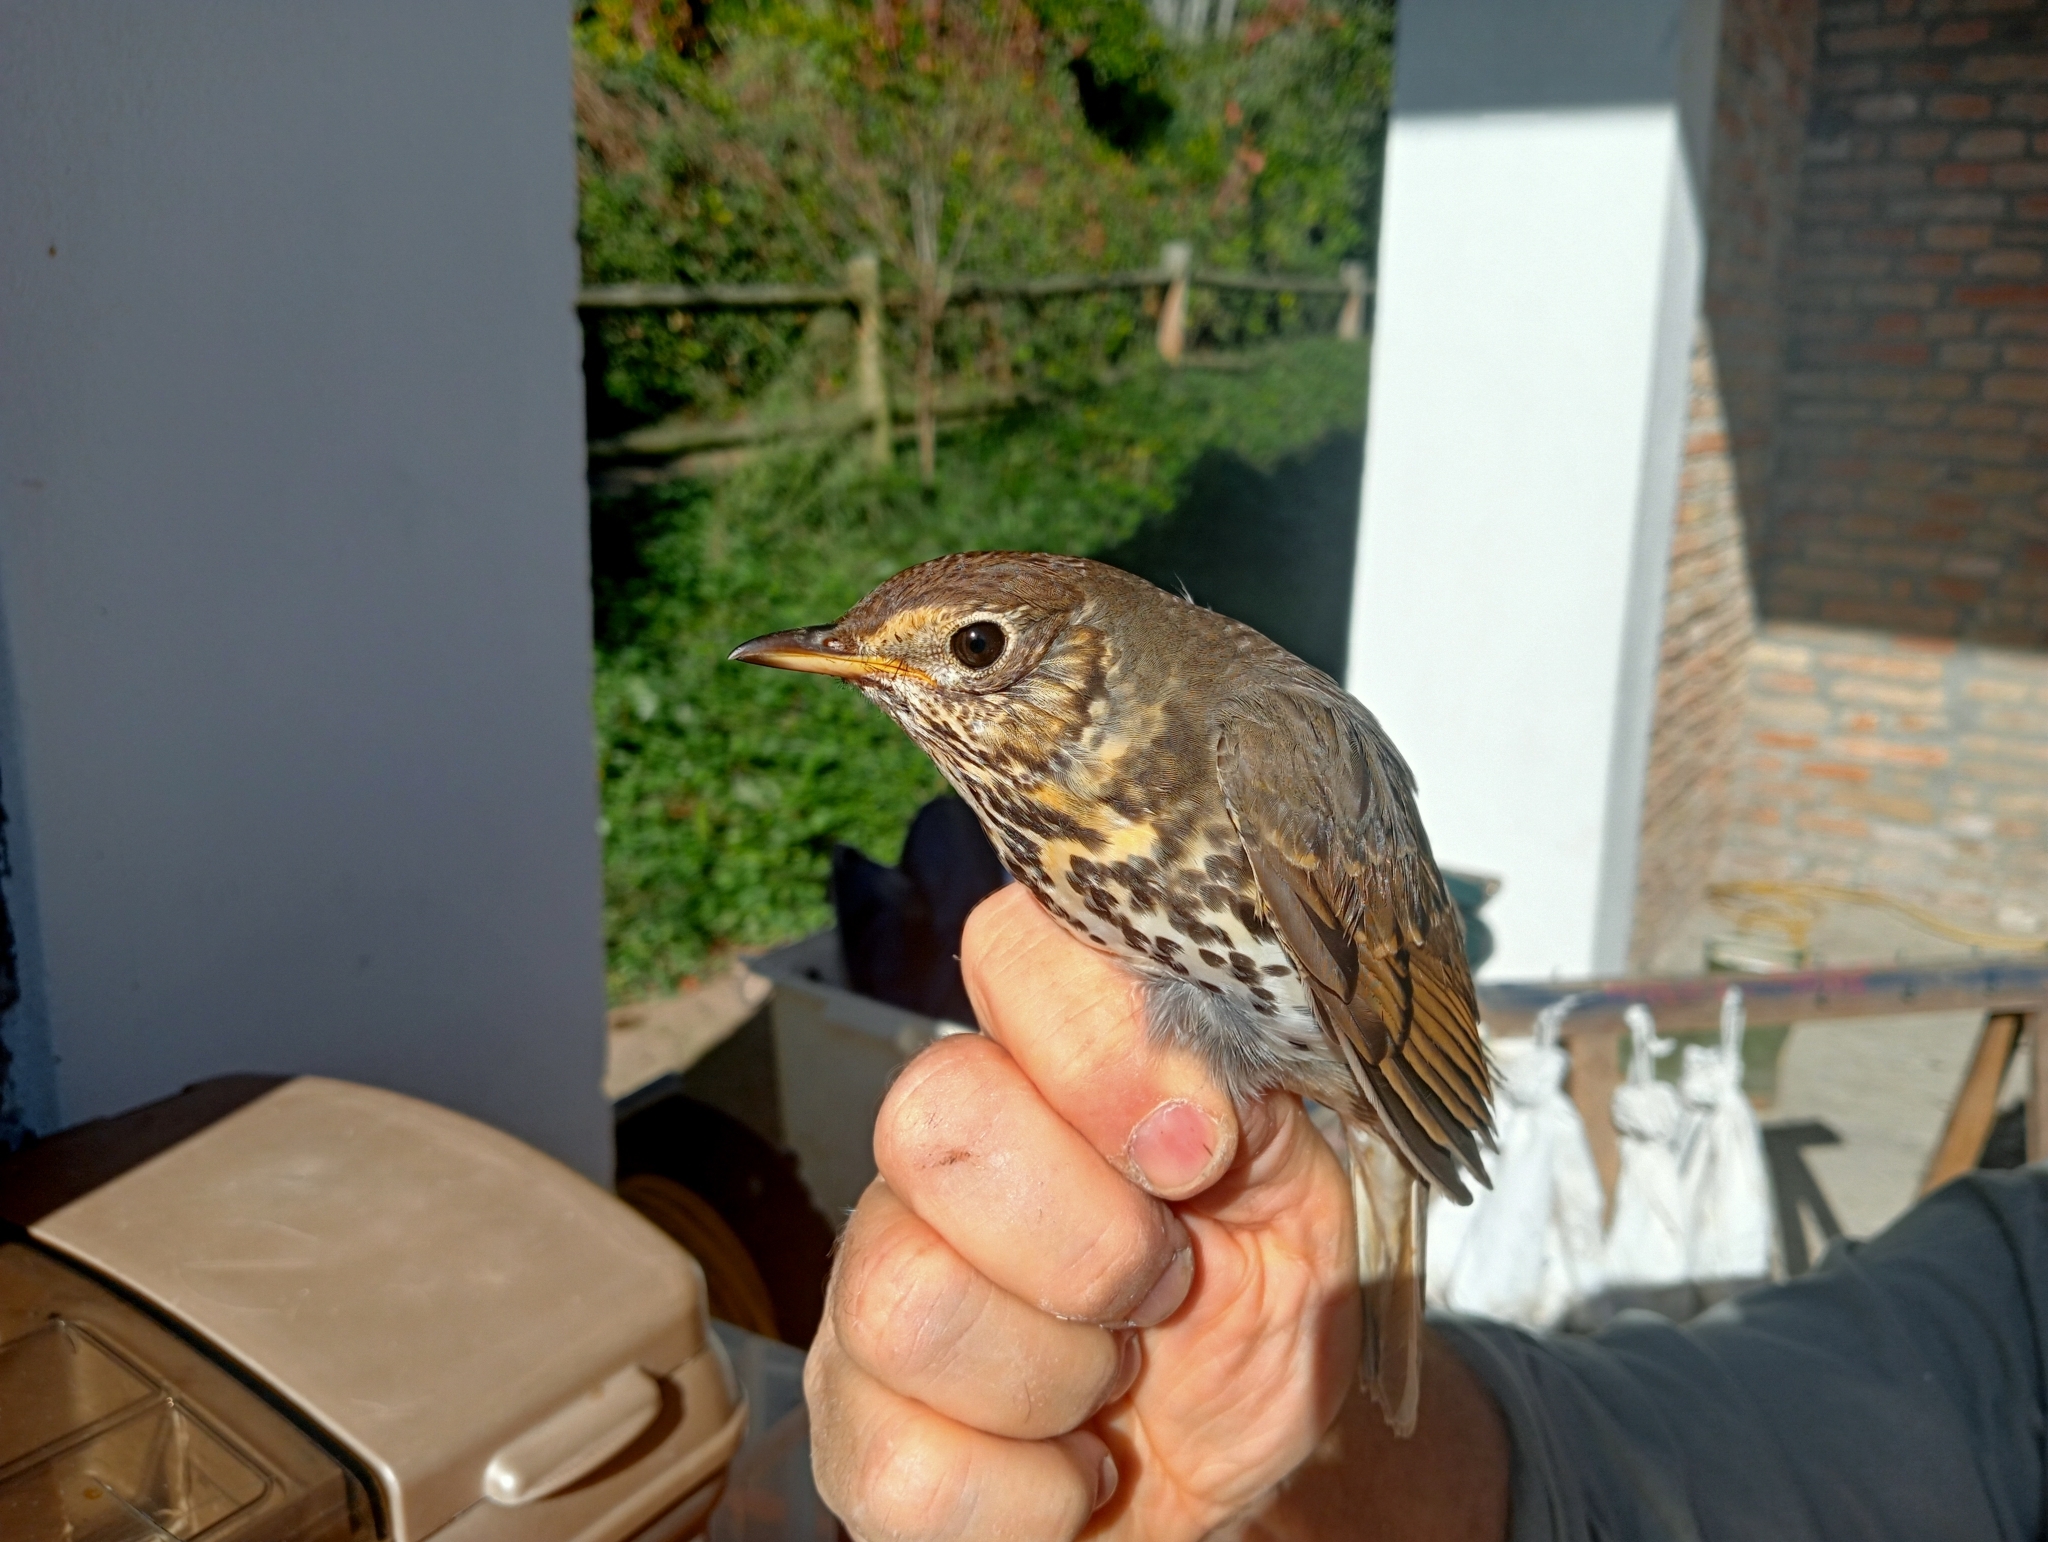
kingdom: Animalia
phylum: Chordata
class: Aves
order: Passeriformes
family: Turdidae
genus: Turdus
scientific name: Turdus philomelos
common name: Song thrush
